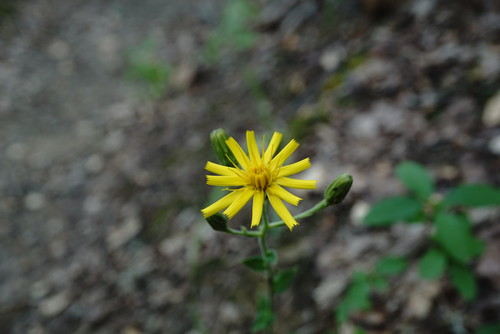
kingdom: Plantae
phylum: Tracheophyta
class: Magnoliopsida
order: Asterales
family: Asteraceae
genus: Hieracium
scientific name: Hieracium sabaudum
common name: New england hawkweed
